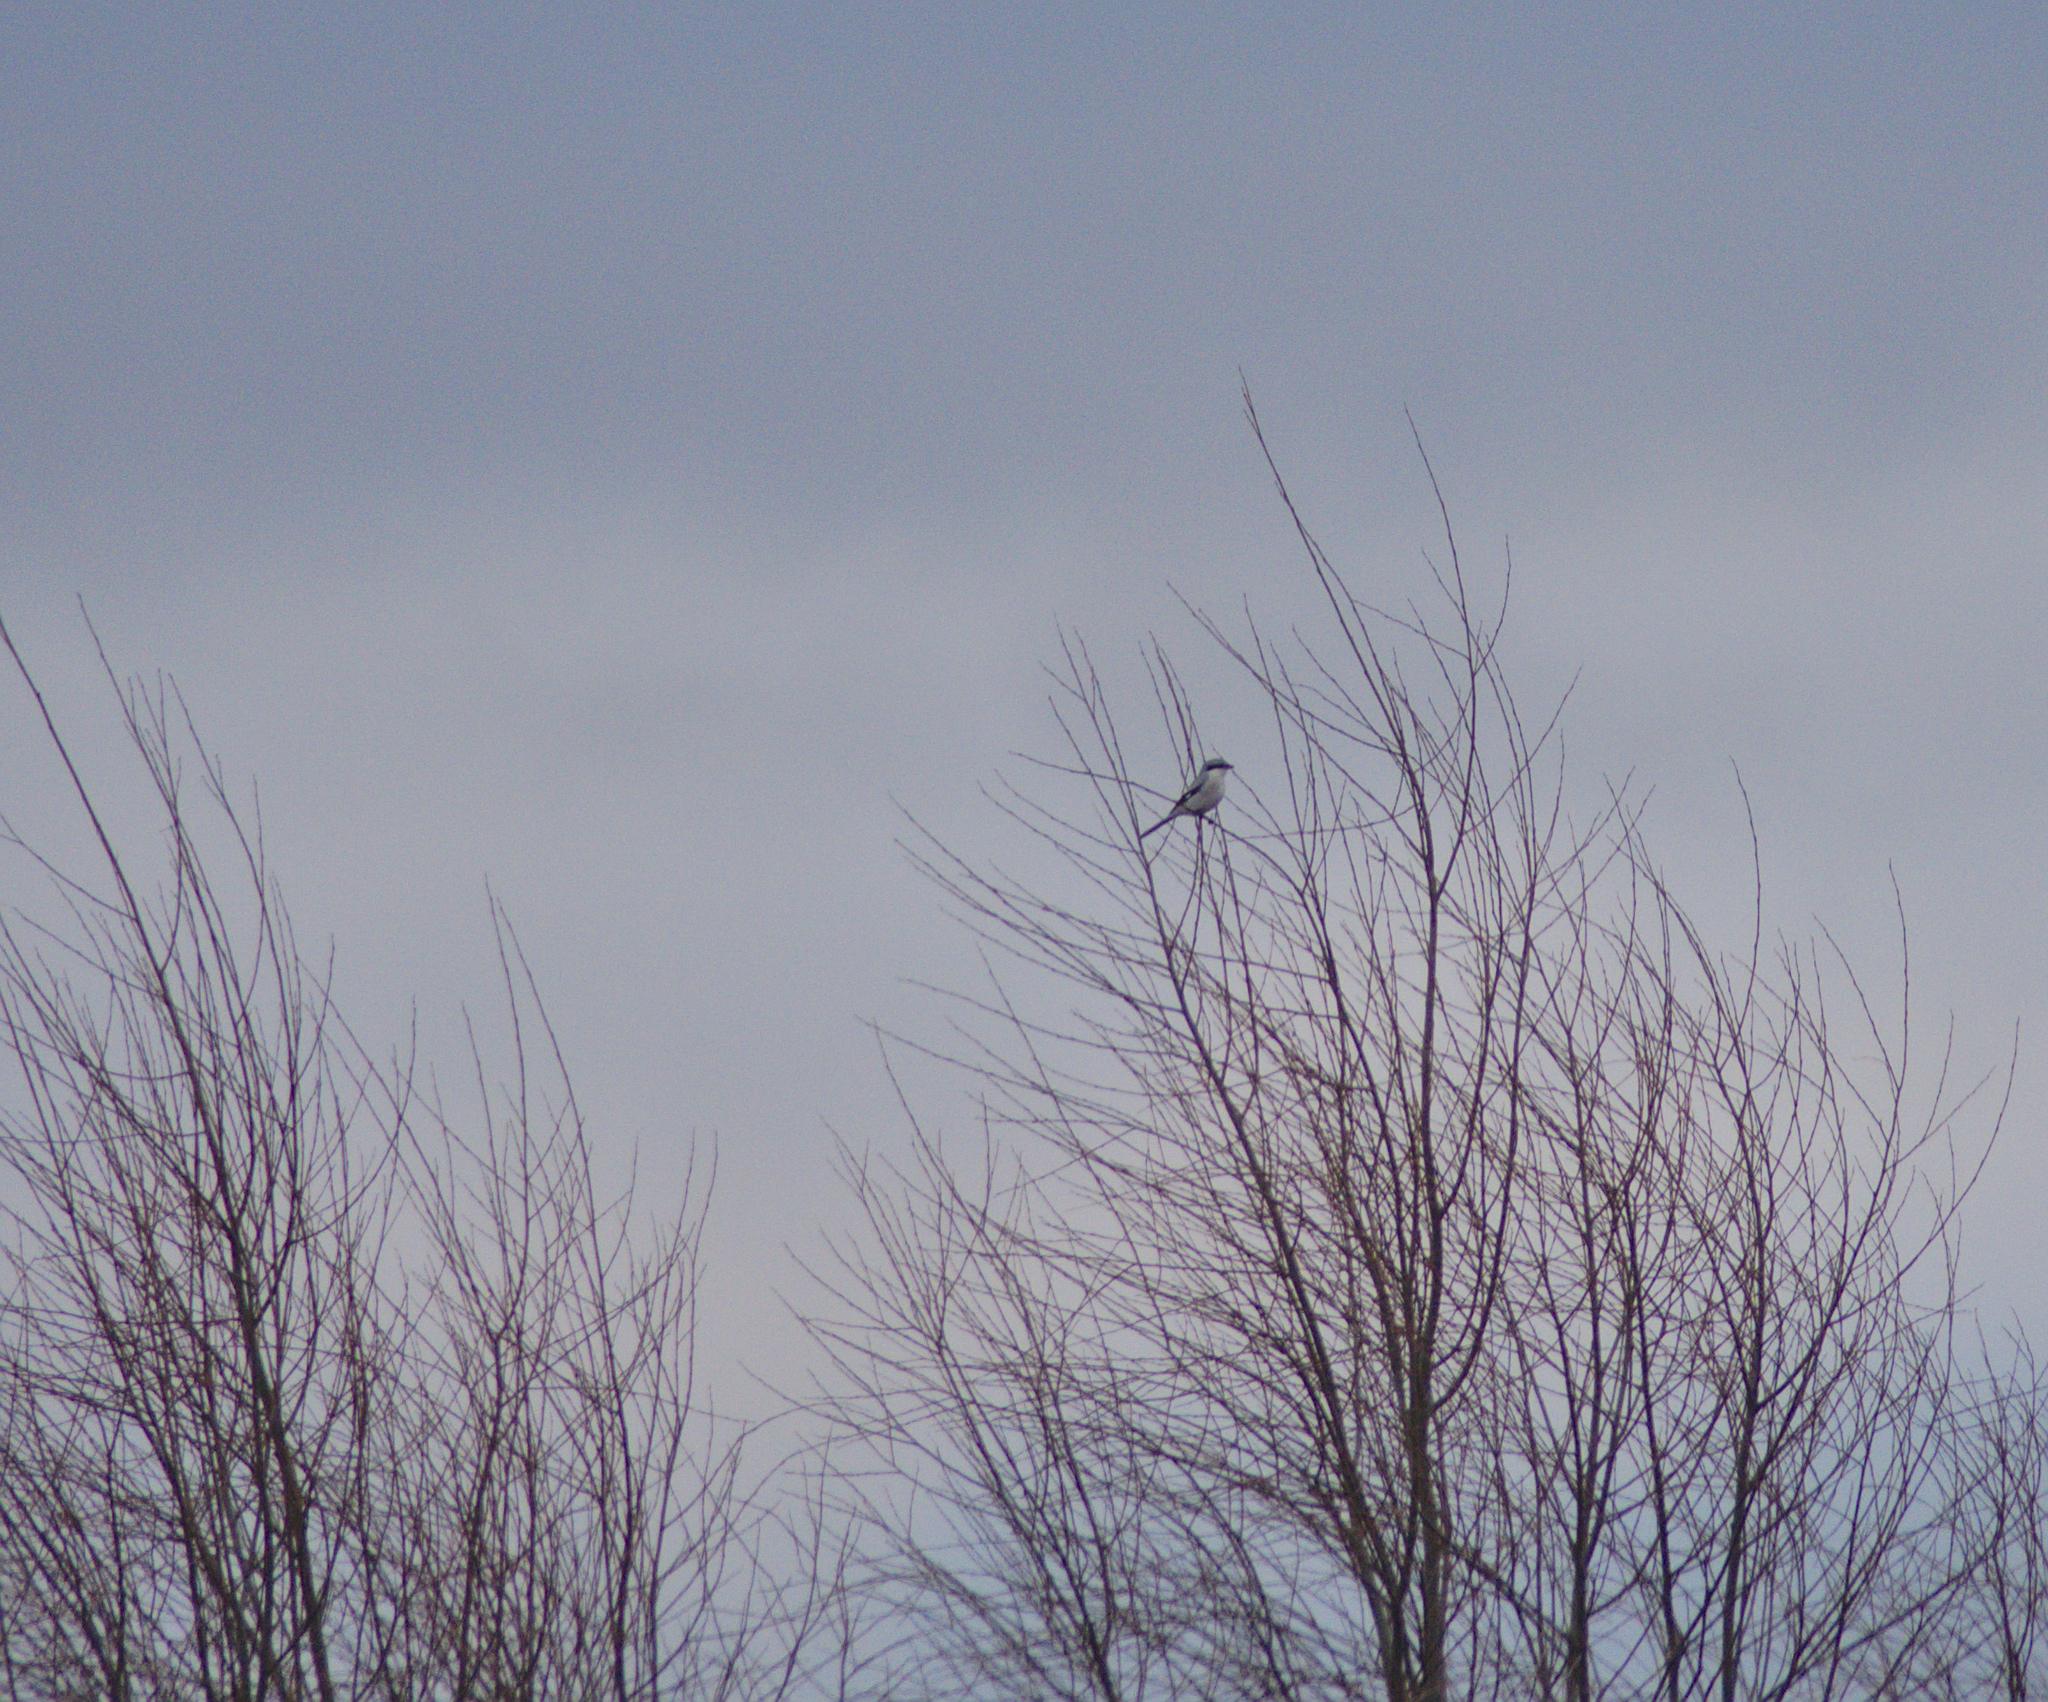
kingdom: Animalia
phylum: Chordata
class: Aves
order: Passeriformes
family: Laniidae
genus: Lanius
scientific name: Lanius excubitor
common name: Great grey shrike
